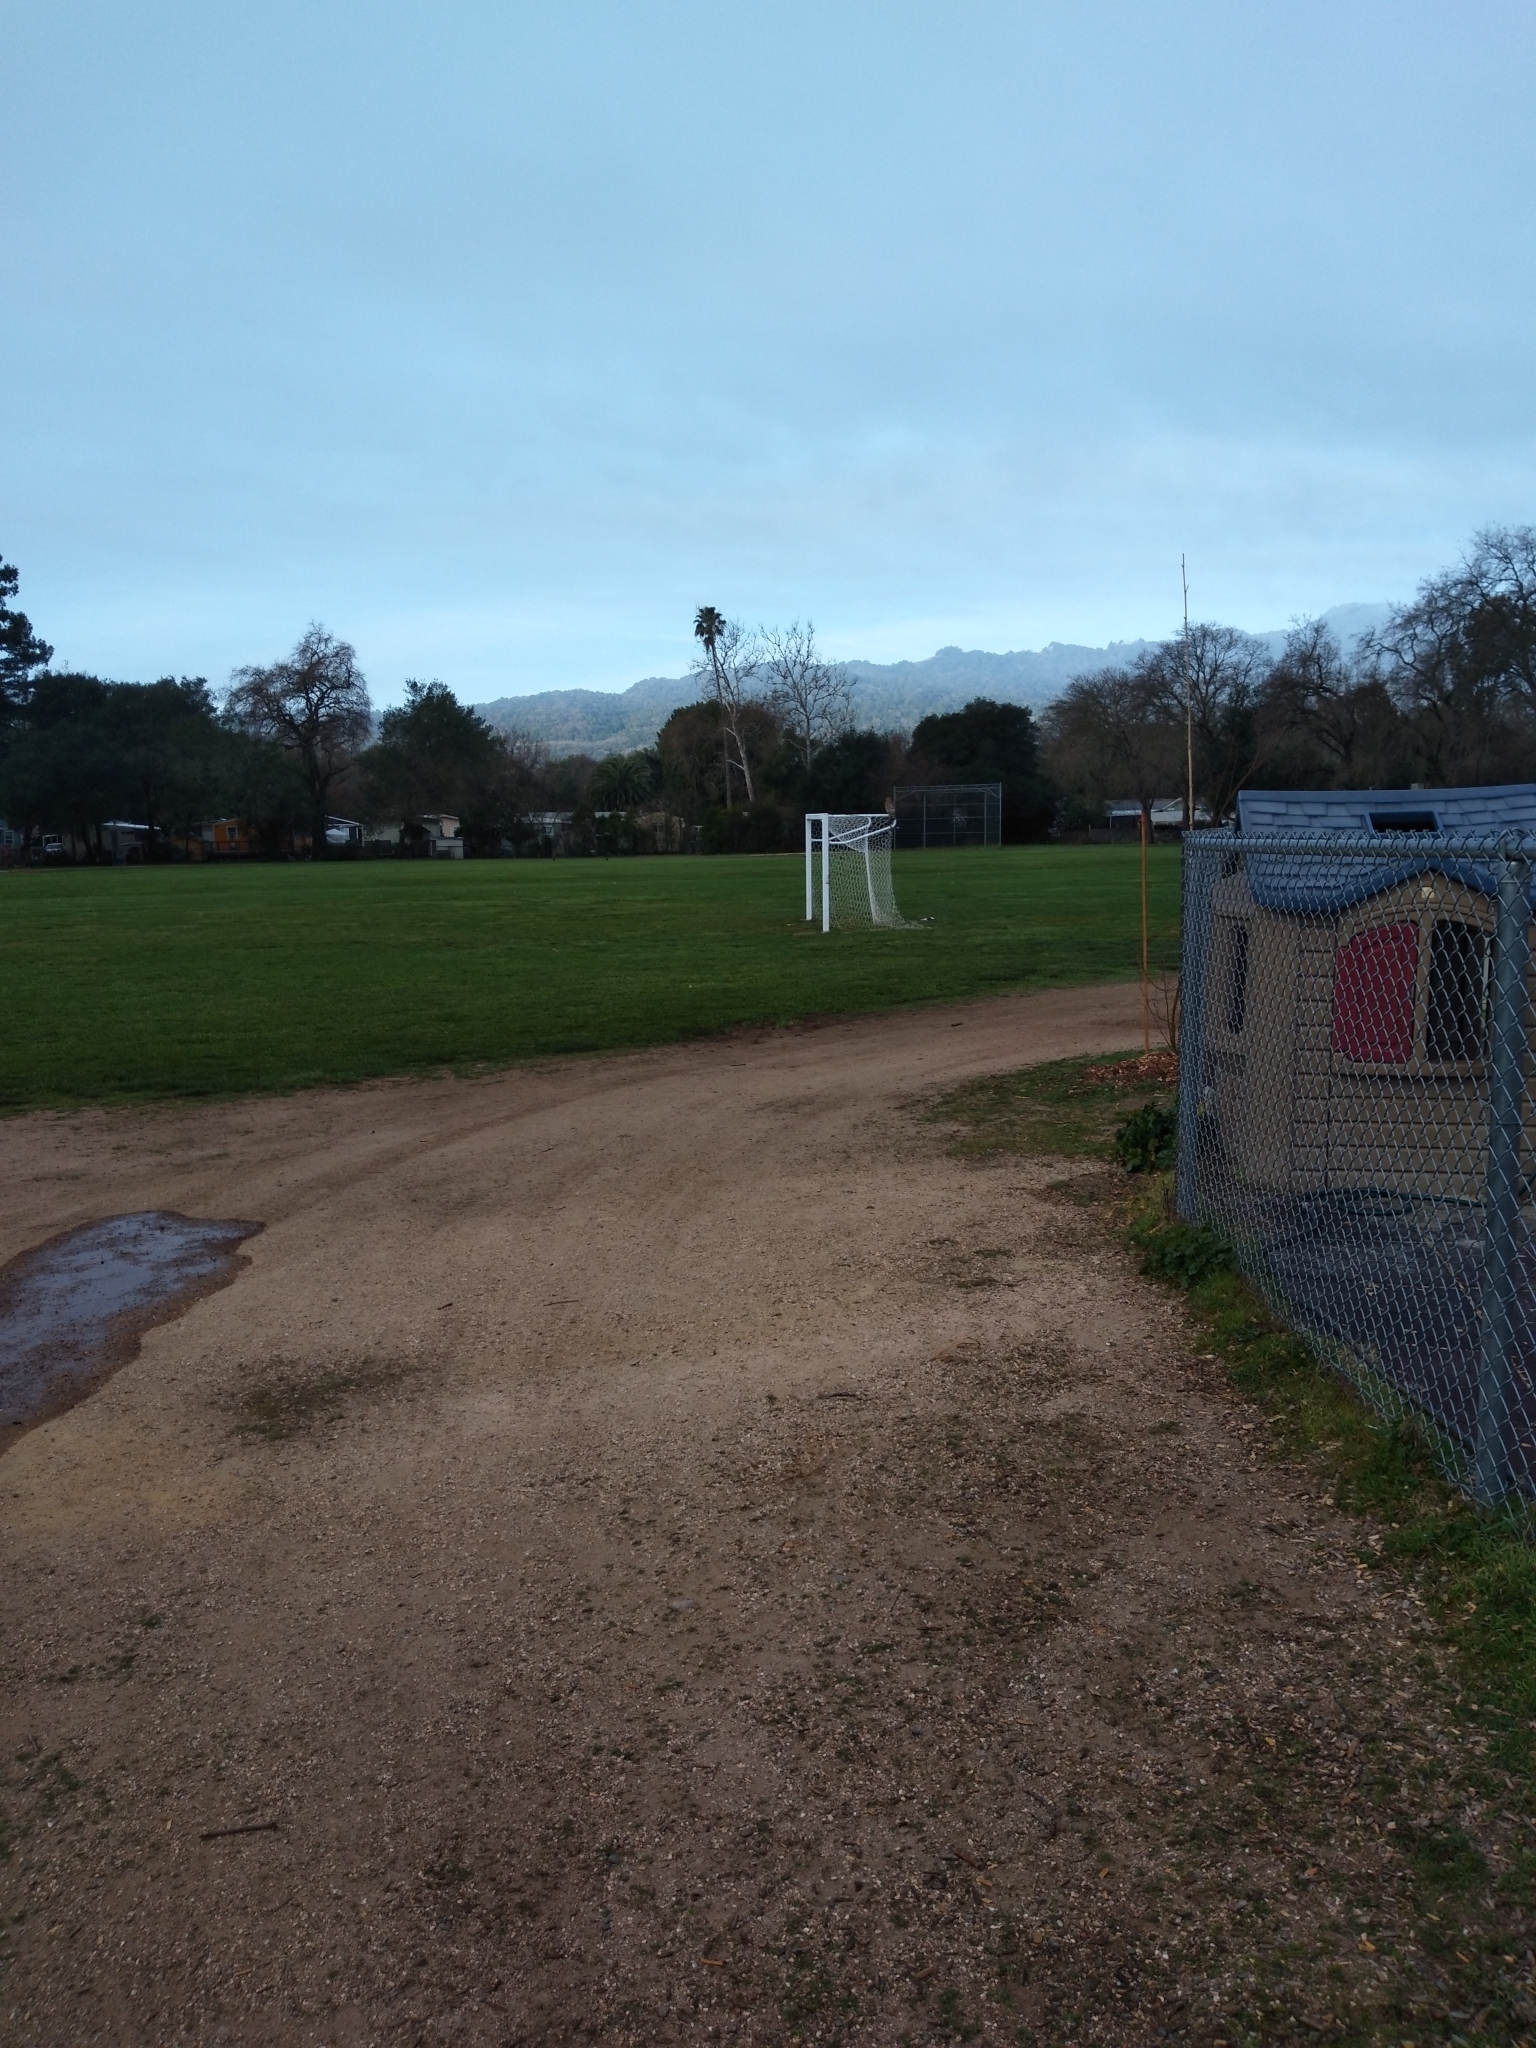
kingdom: Animalia
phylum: Chordata
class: Aves
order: Accipitriformes
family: Accipitridae
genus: Buteo
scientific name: Buteo lineatus
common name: Red-shouldered hawk
